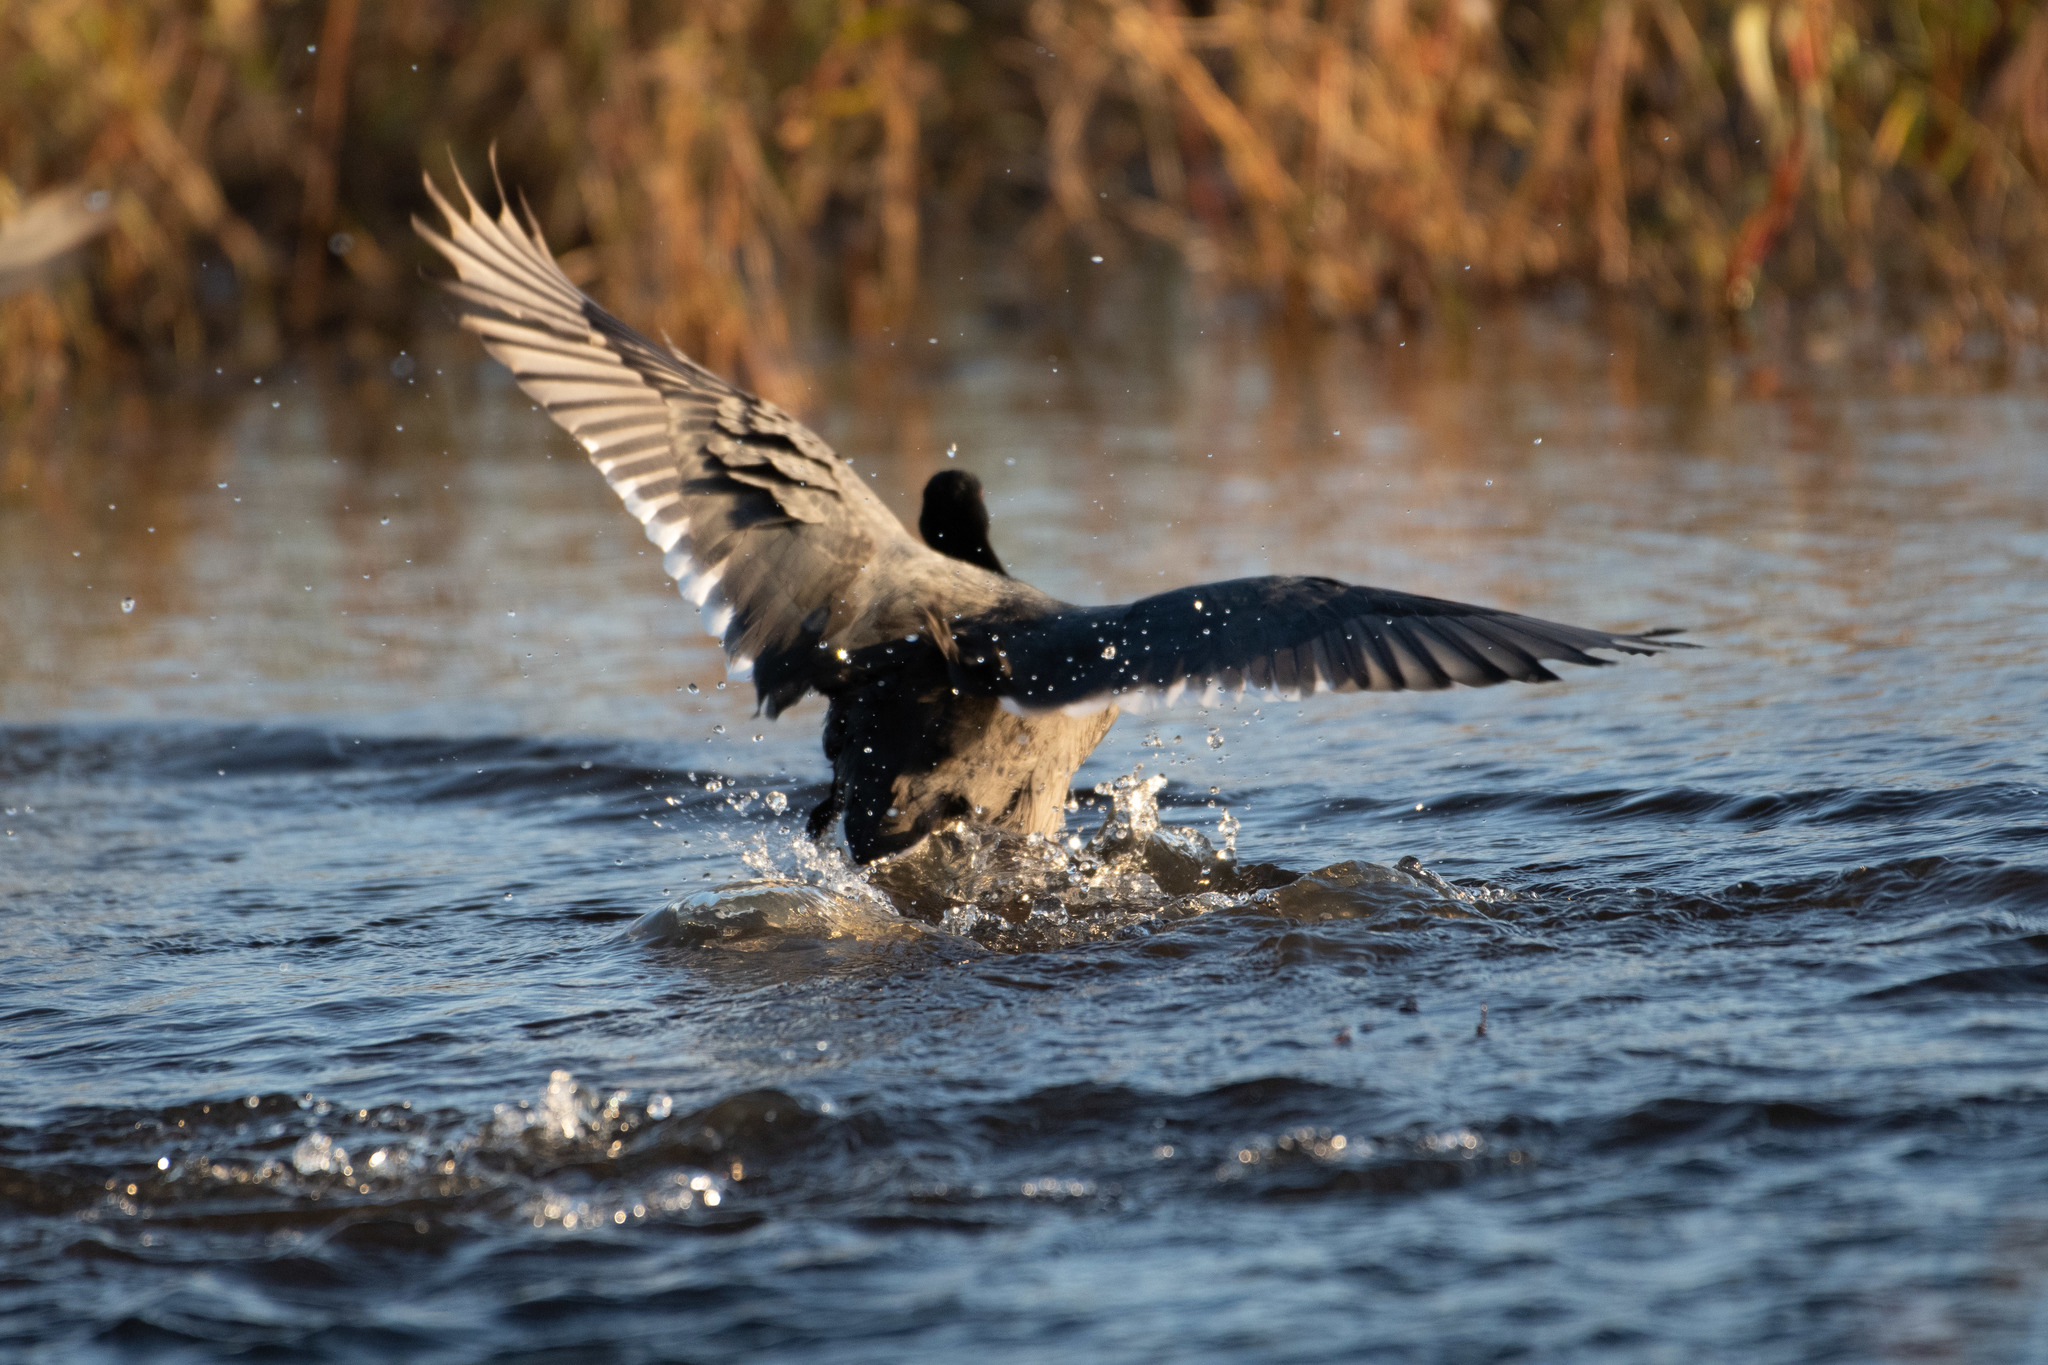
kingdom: Animalia
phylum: Chordata
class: Aves
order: Gruiformes
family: Rallidae
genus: Fulica
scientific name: Fulica americana
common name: American coot
